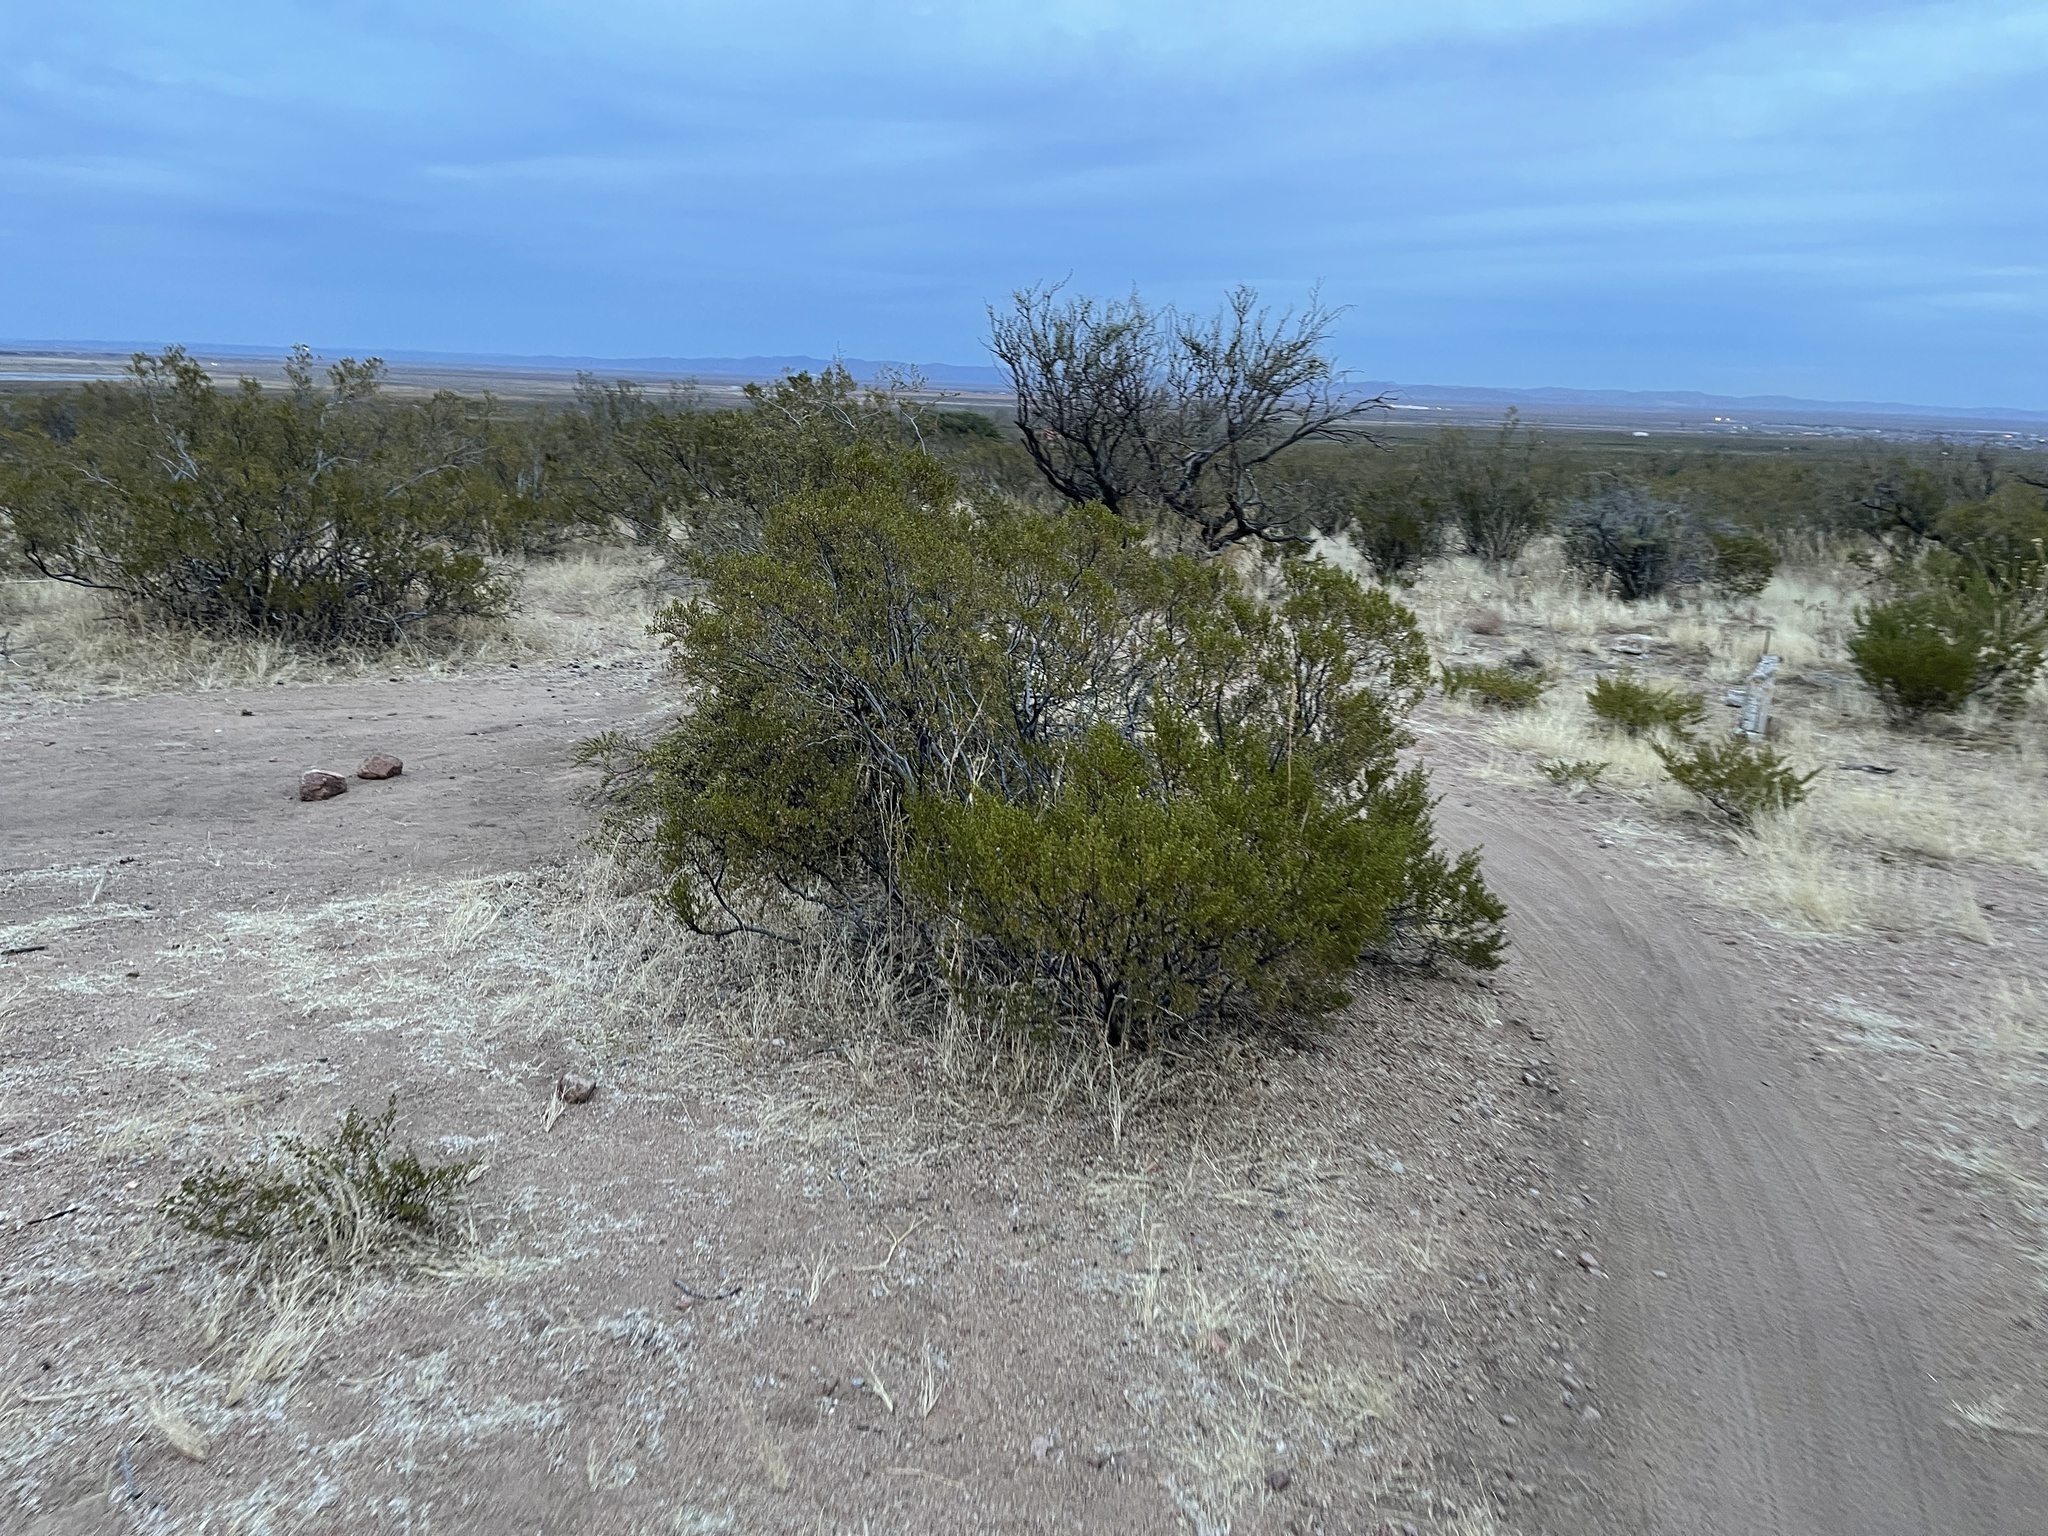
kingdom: Plantae
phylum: Tracheophyta
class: Magnoliopsida
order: Zygophyllales
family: Zygophyllaceae
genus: Larrea
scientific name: Larrea tridentata
